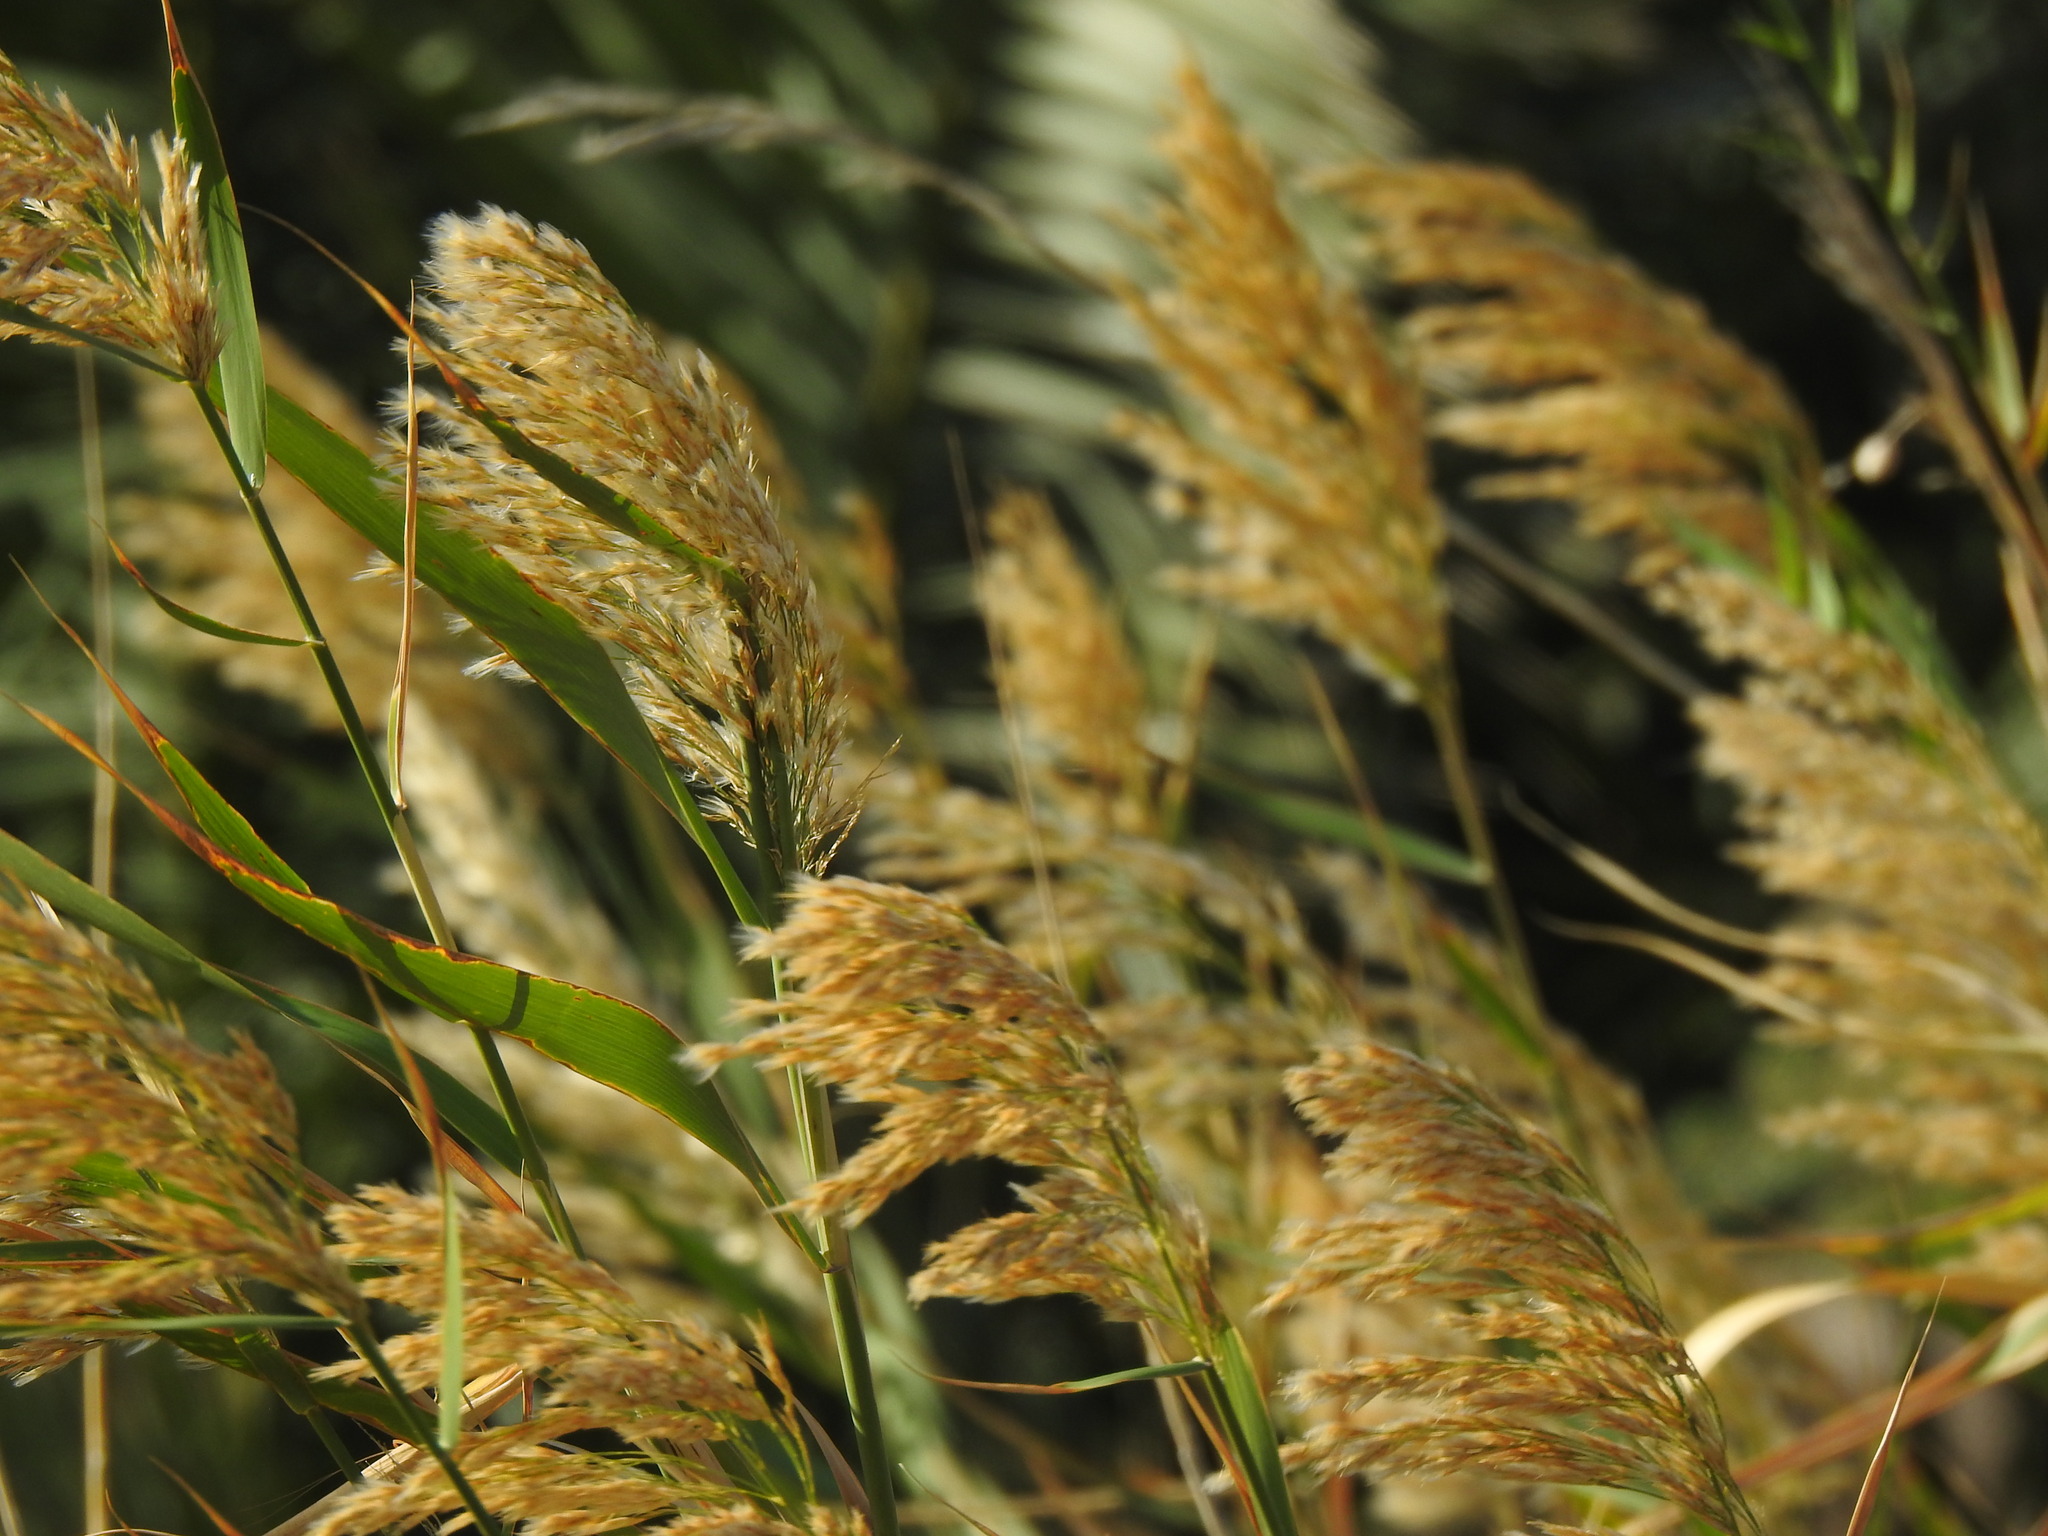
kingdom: Plantae
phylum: Tracheophyta
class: Liliopsida
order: Poales
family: Poaceae
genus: Phragmites
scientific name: Phragmites australis
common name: Common reed
